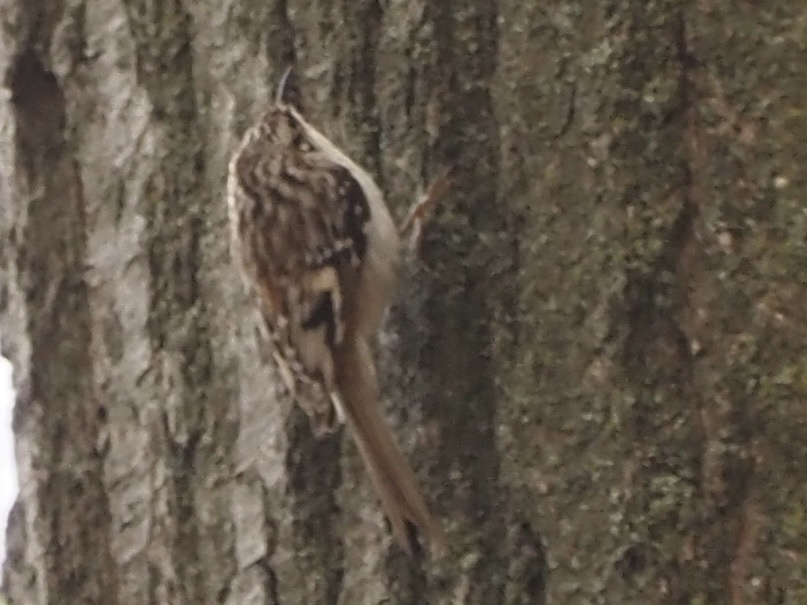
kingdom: Animalia
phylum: Chordata
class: Aves
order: Passeriformes
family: Certhiidae
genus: Certhia
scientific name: Certhia americana
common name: Brown creeper
